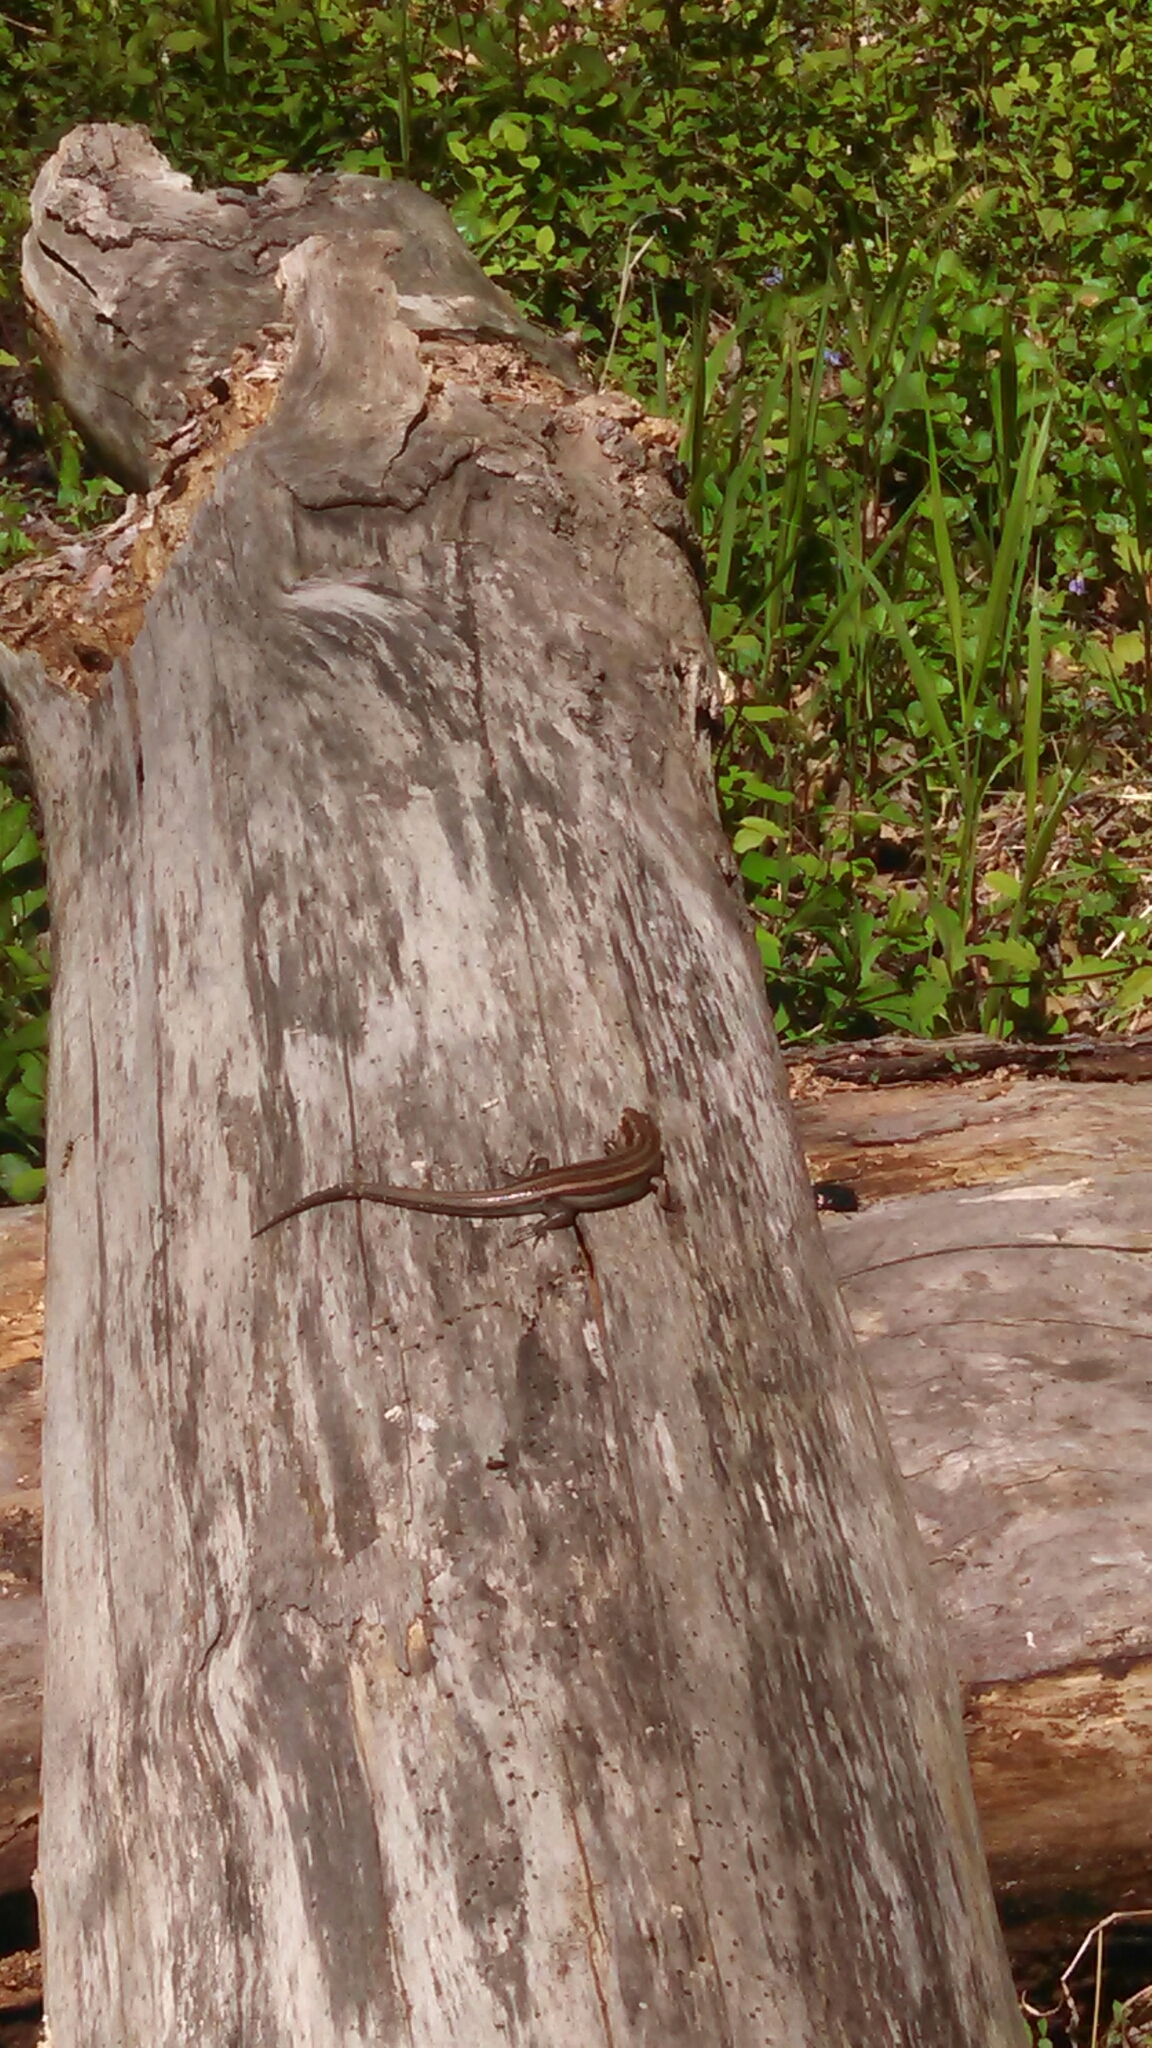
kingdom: Animalia
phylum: Chordata
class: Squamata
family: Scincidae
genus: Plestiodon
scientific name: Plestiodon fasciatus
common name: Five-lined skink
